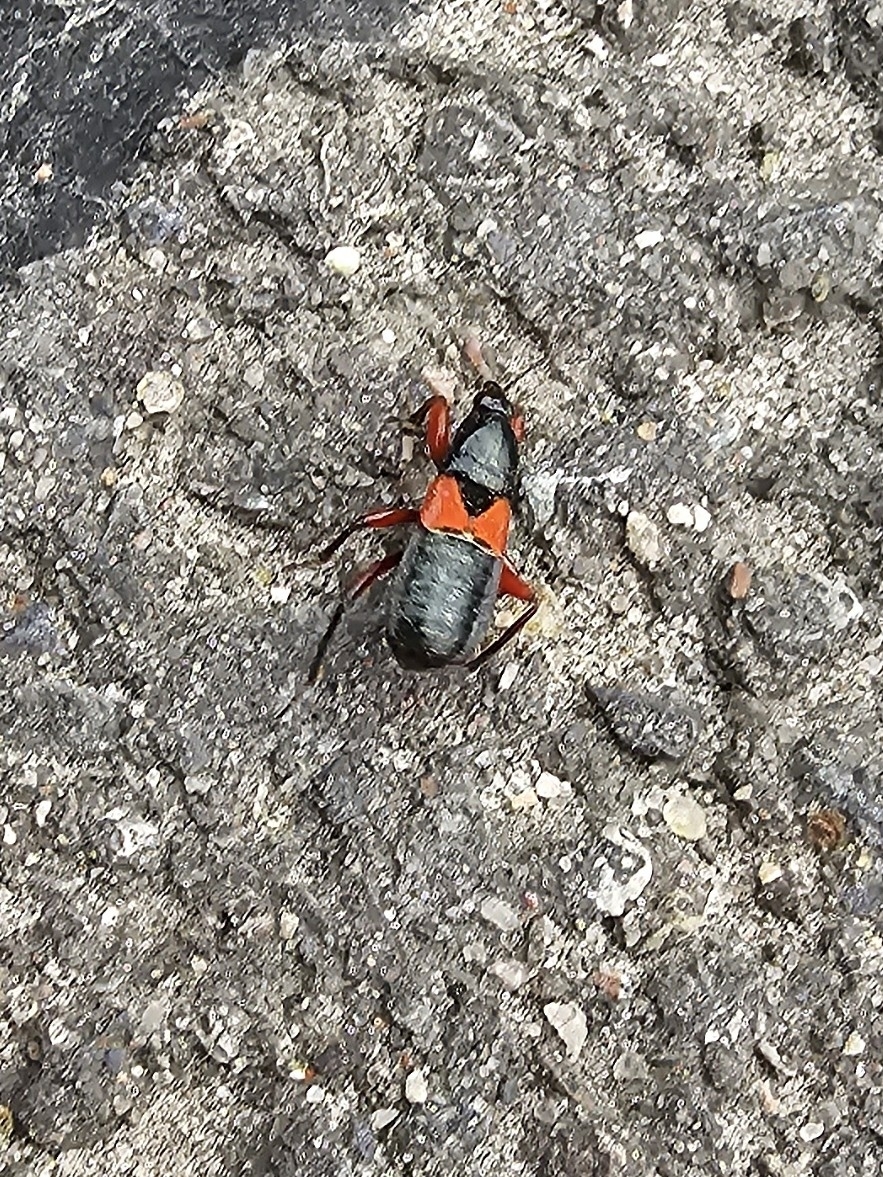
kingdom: Animalia
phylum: Arthropoda
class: Insecta
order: Hemiptera
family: Nabidae
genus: Prostemma
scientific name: Prostemma guttula
